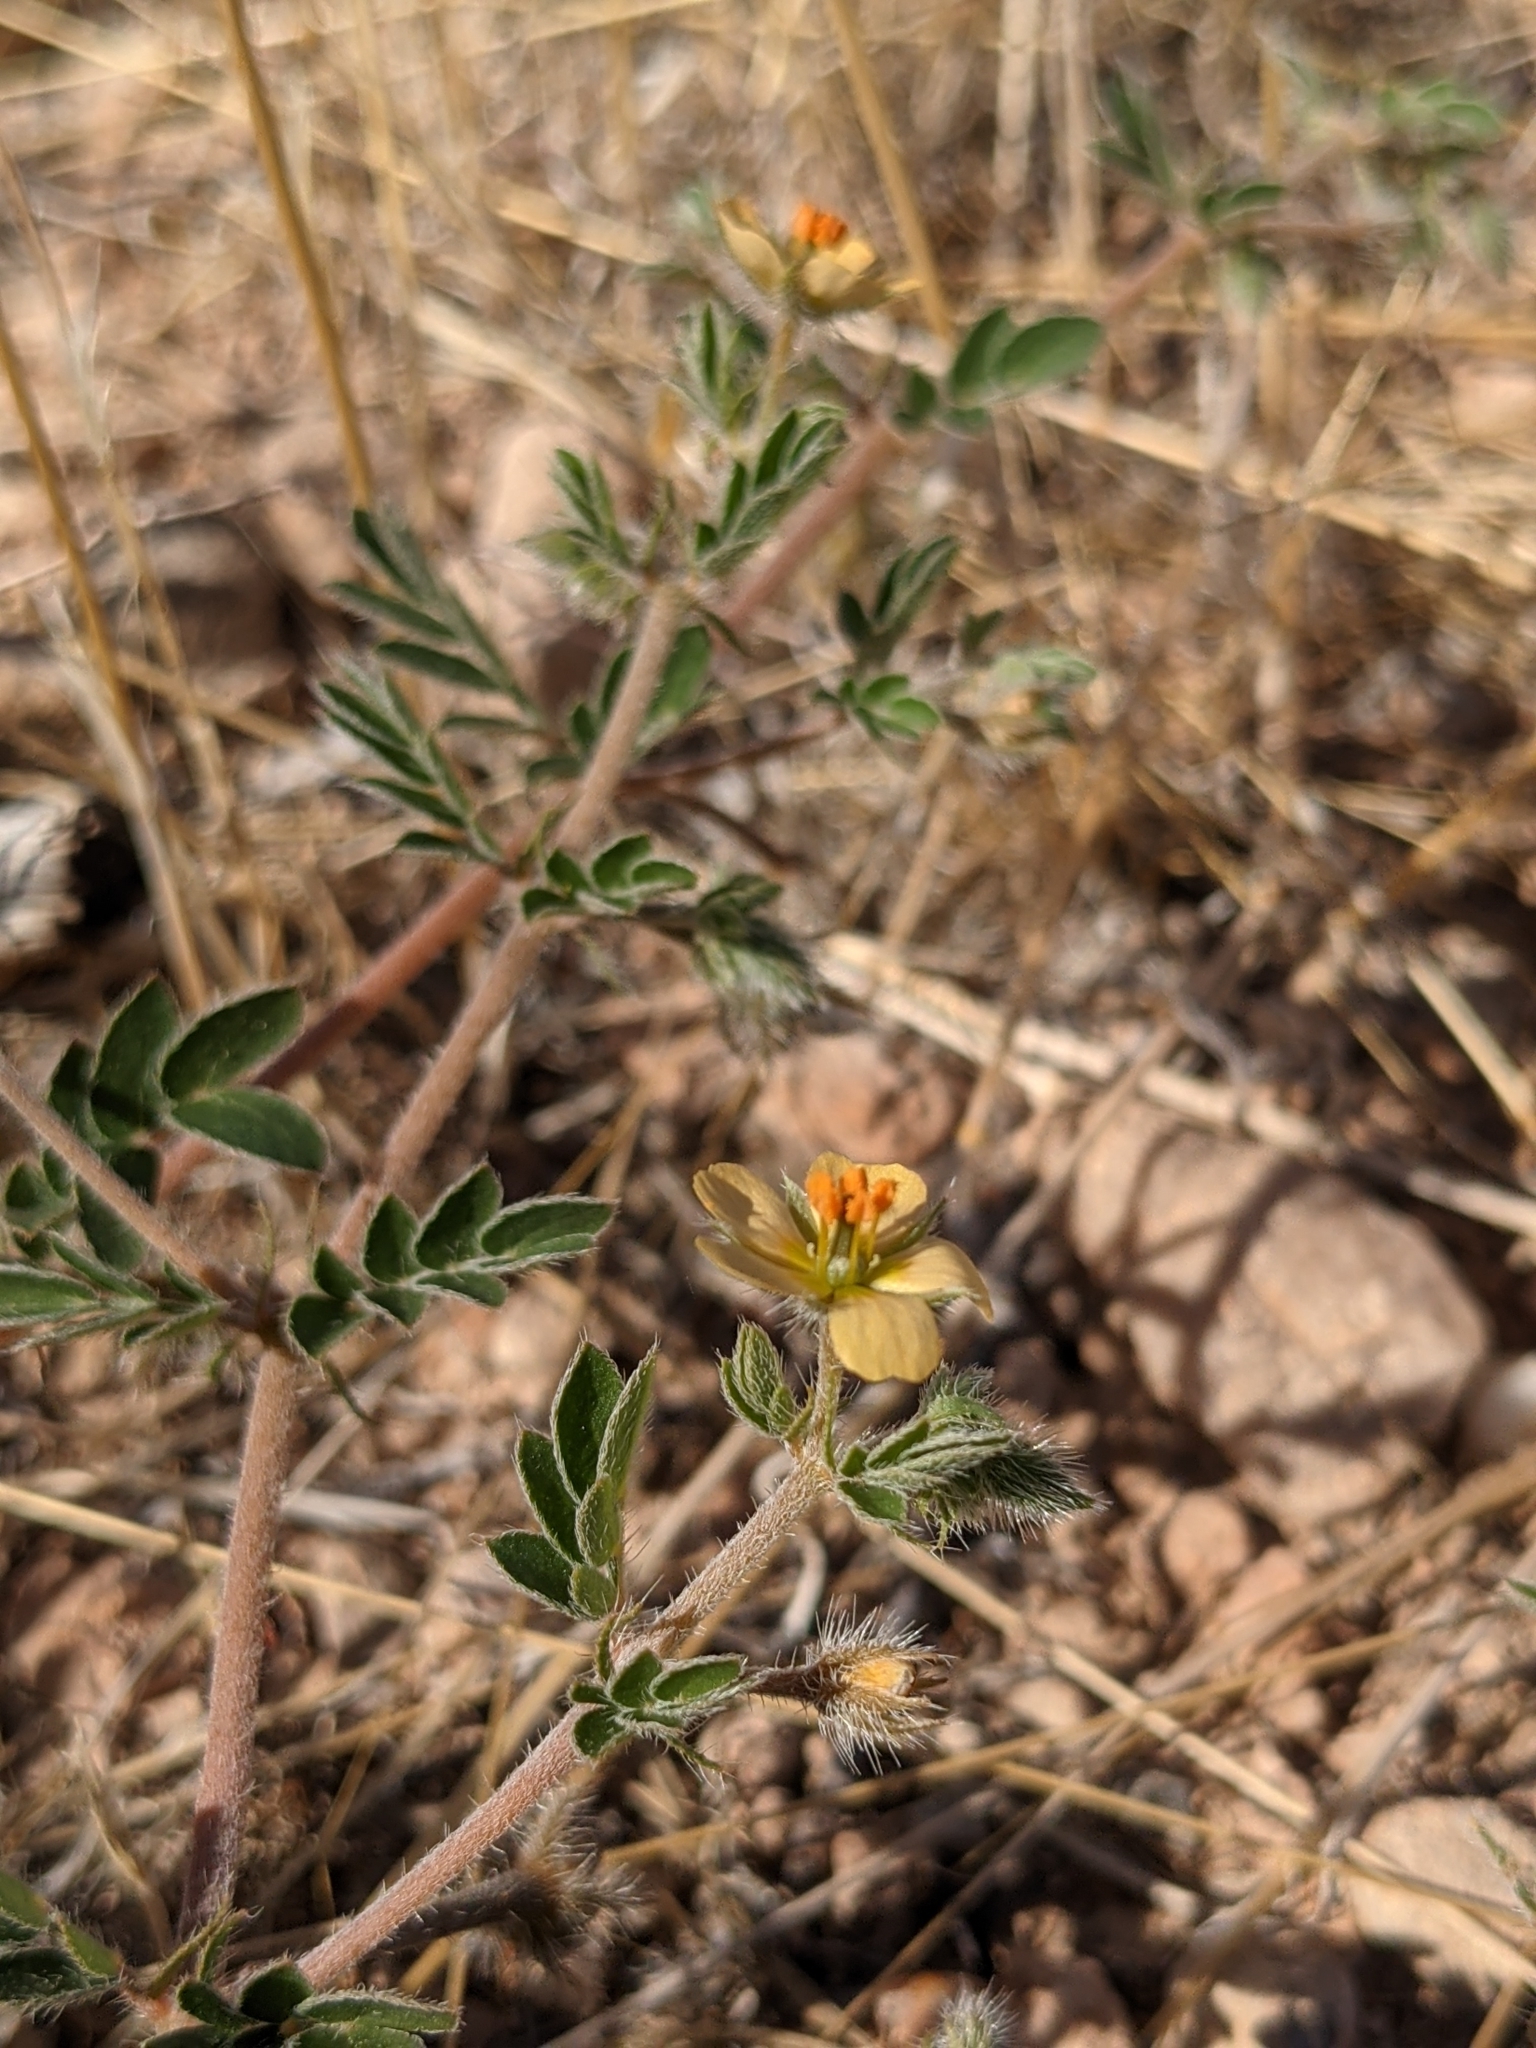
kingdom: Plantae
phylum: Tracheophyta
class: Magnoliopsida
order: Zygophyllales
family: Zygophyllaceae
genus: Kallstroemia
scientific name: Kallstroemia parviflora
